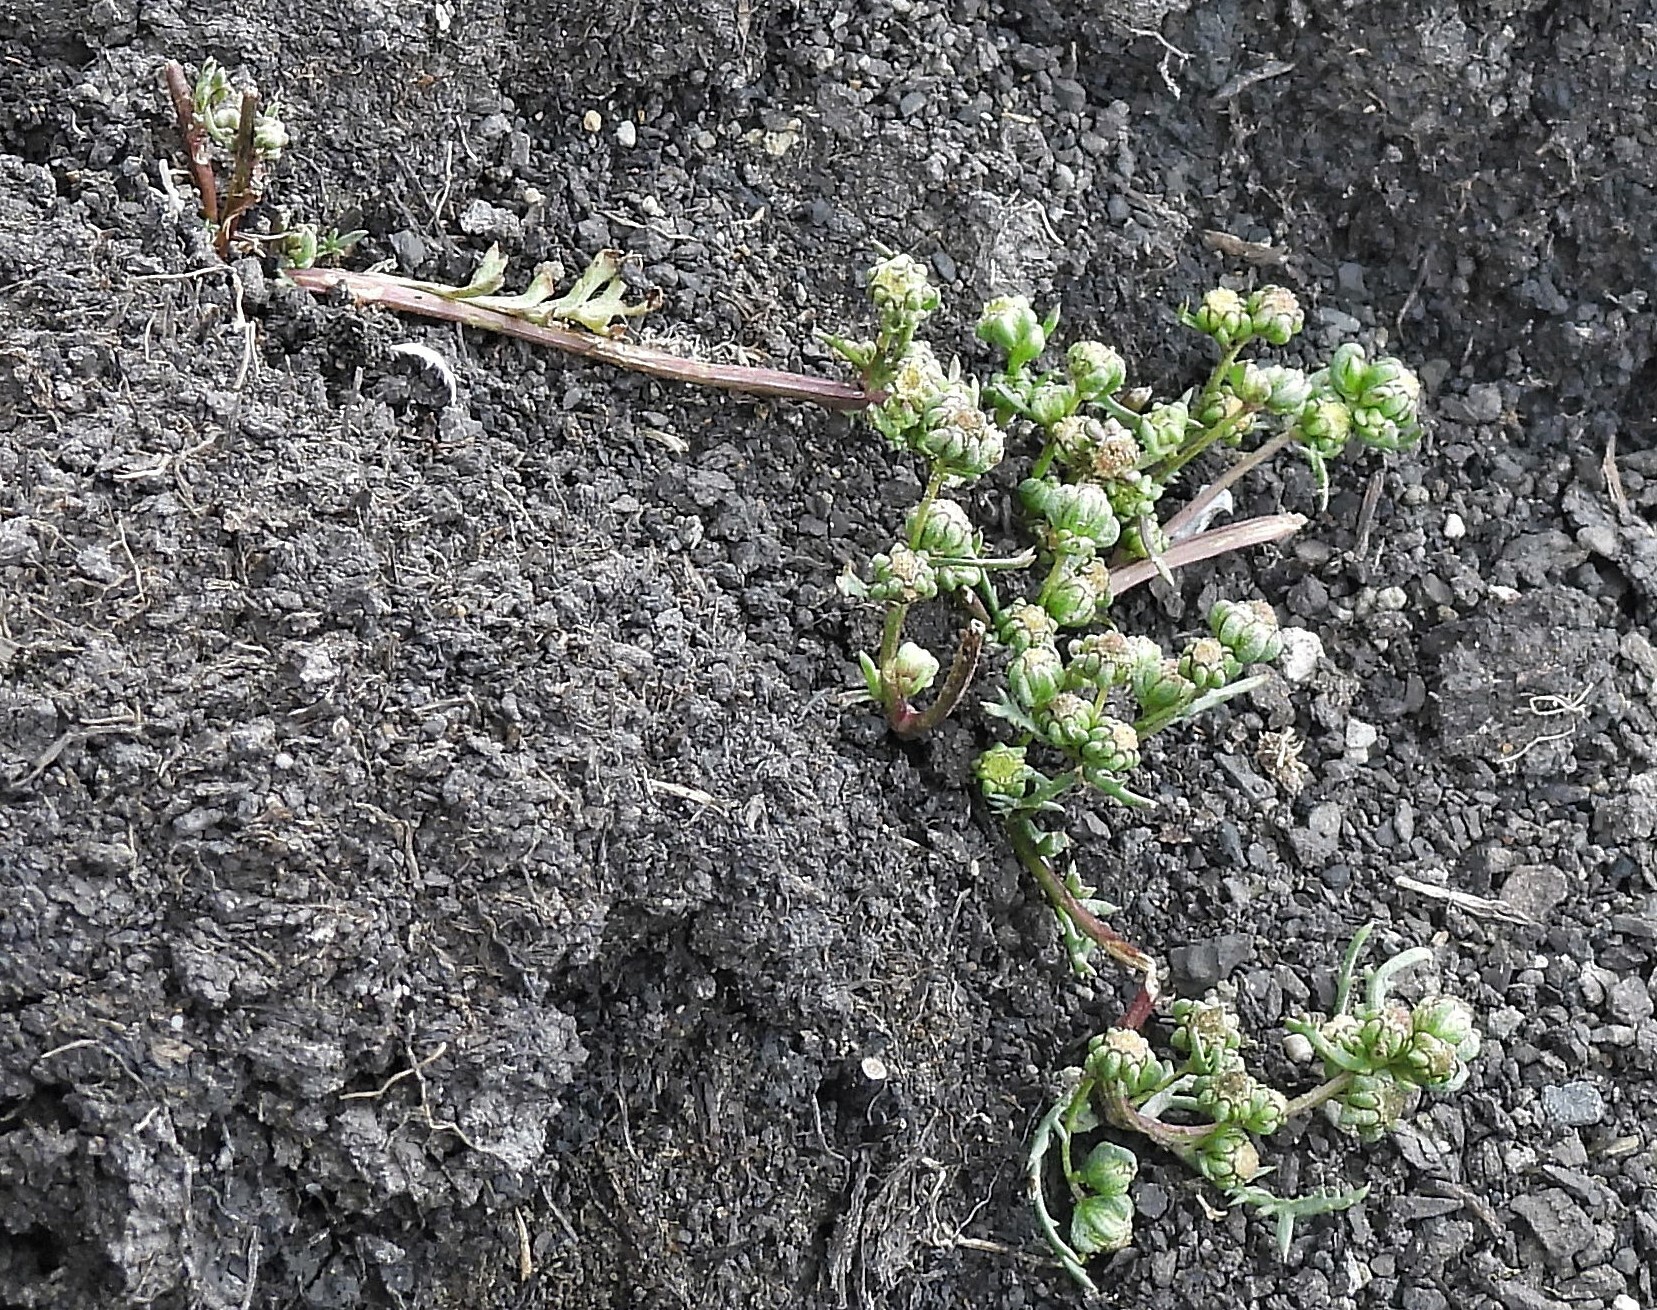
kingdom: Plantae
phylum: Tracheophyta
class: Magnoliopsida
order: Asterales
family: Asteraceae
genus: Artemisia
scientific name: Artemisia magellanica
